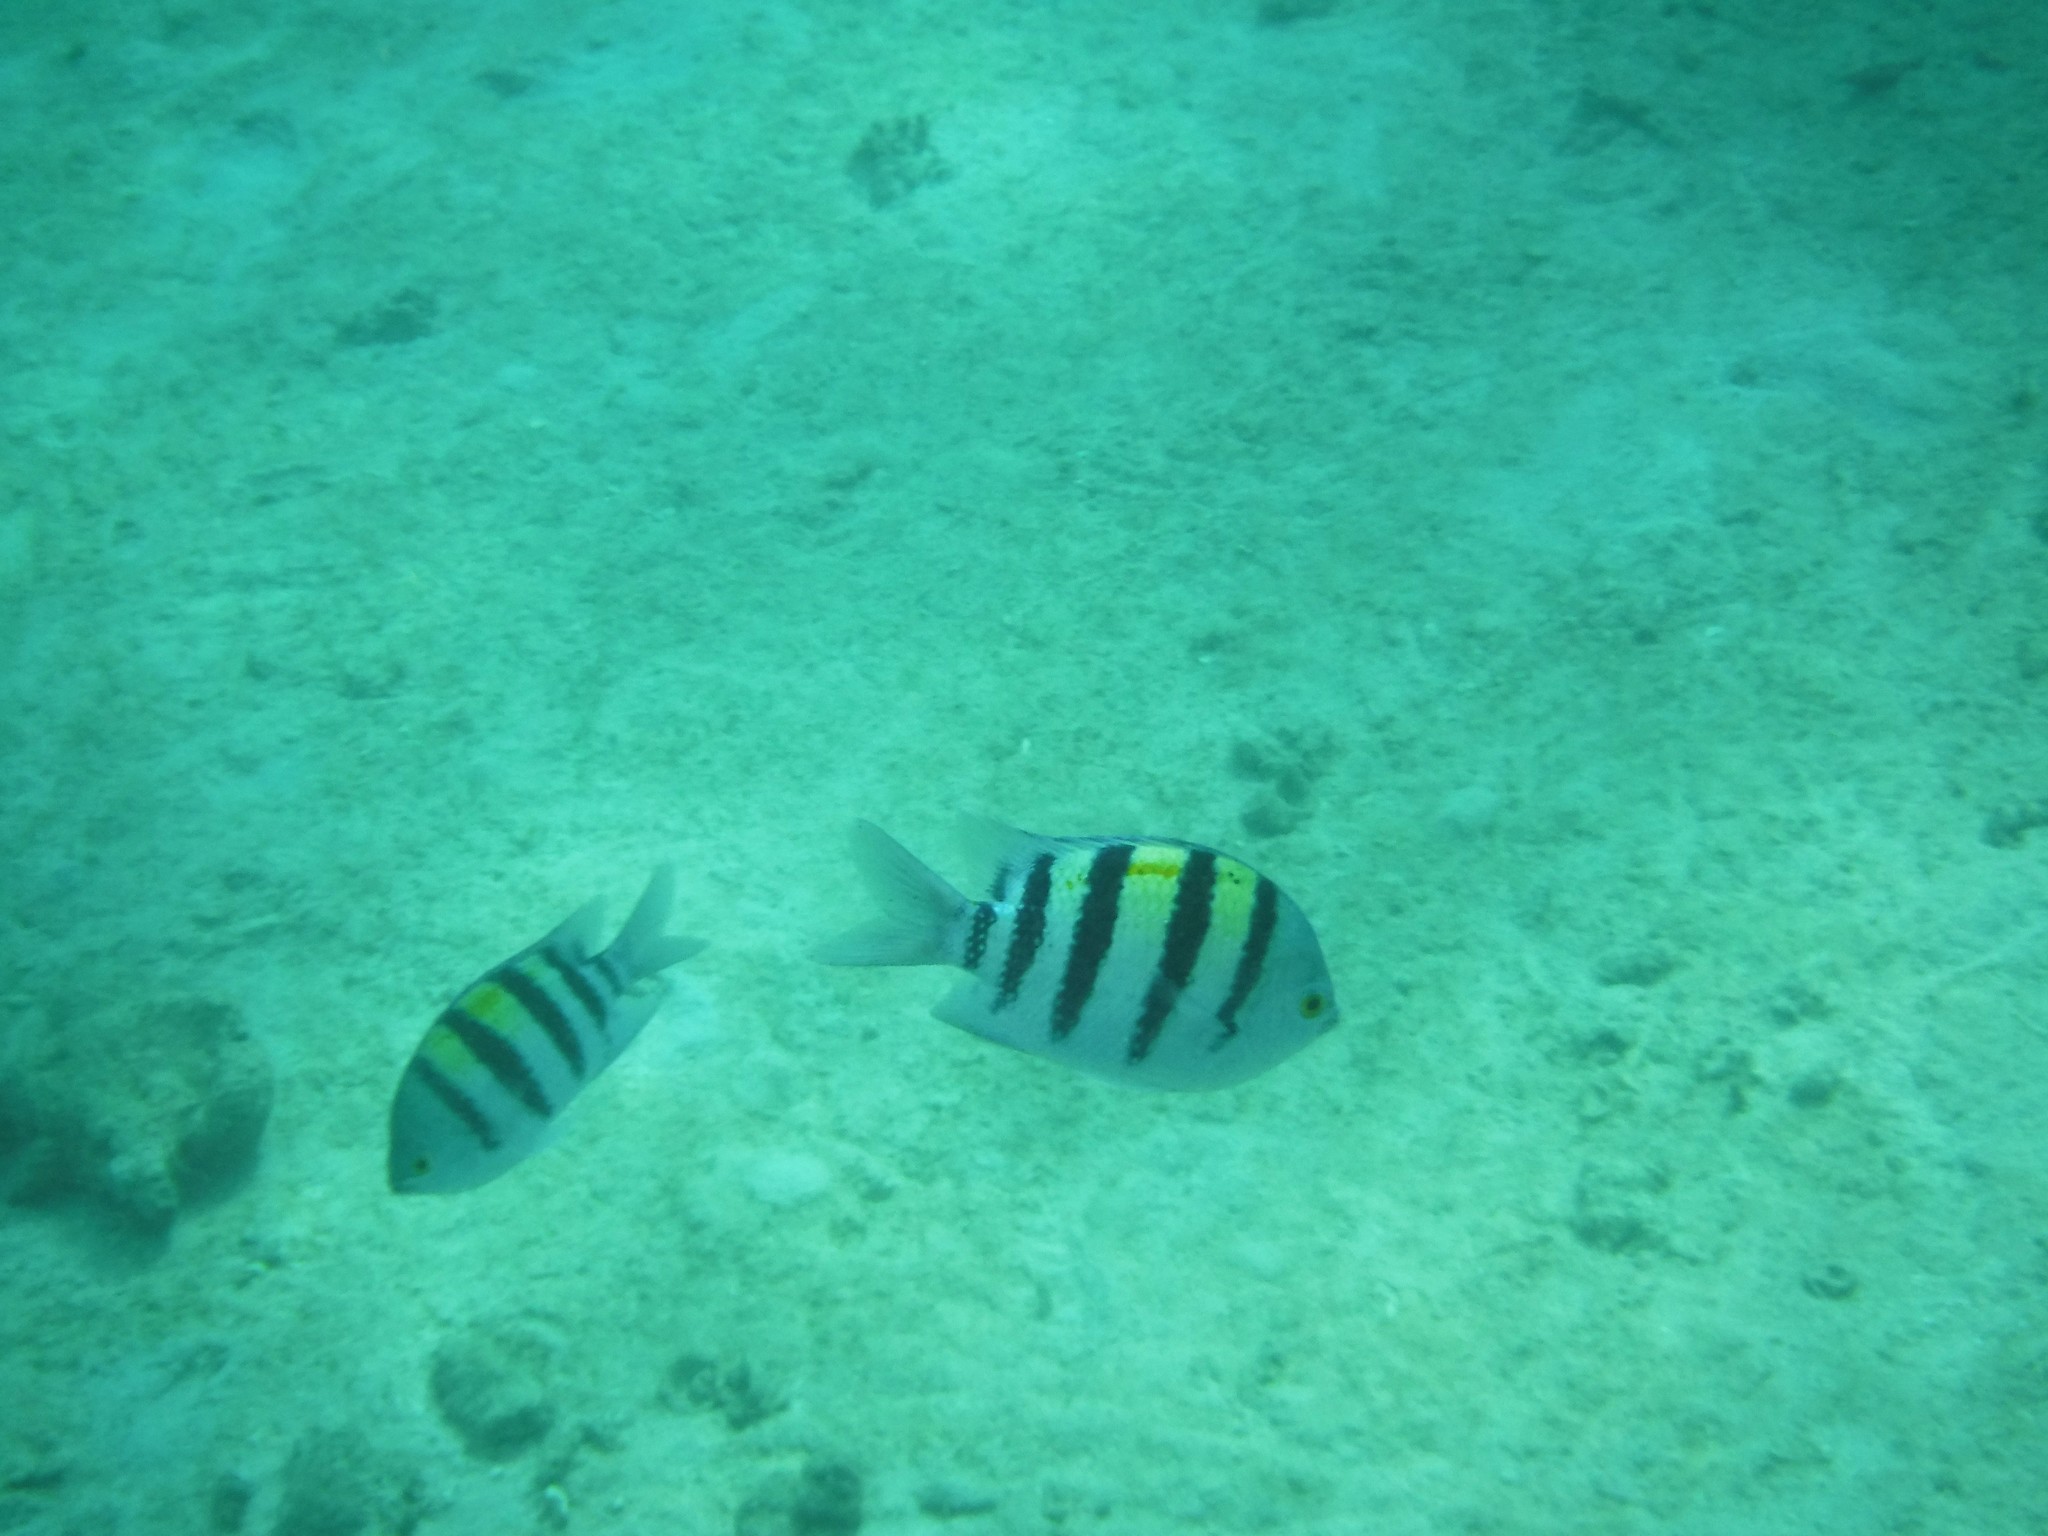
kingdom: Animalia
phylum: Chordata
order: Perciformes
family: Pomacentridae
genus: Abudefduf
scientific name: Abudefduf vaigiensis
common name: Indo-pacific sergeant
